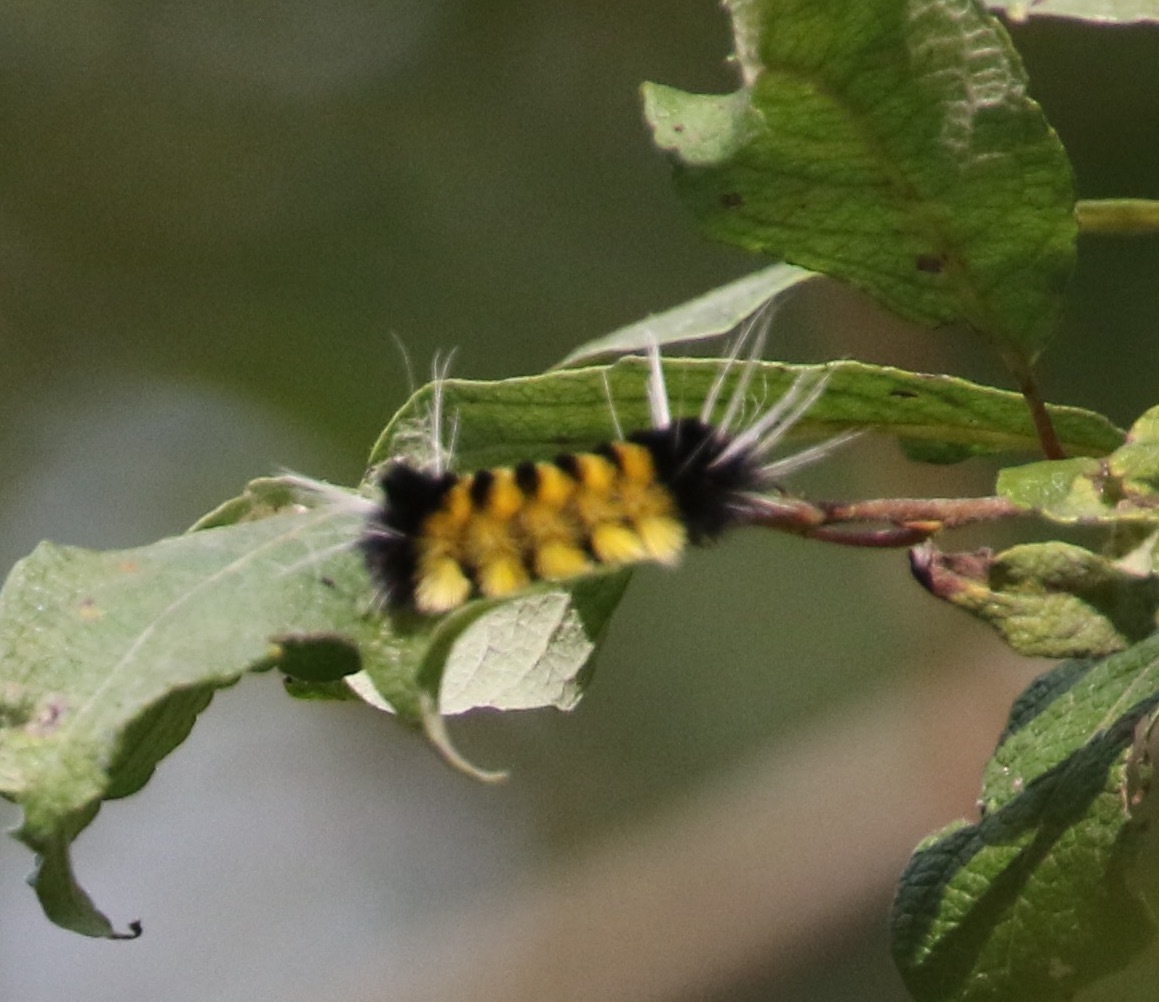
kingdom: Animalia
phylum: Arthropoda
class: Insecta
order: Lepidoptera
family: Erebidae
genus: Lophocampa
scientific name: Lophocampa maculata
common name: Spotted tussock moth
